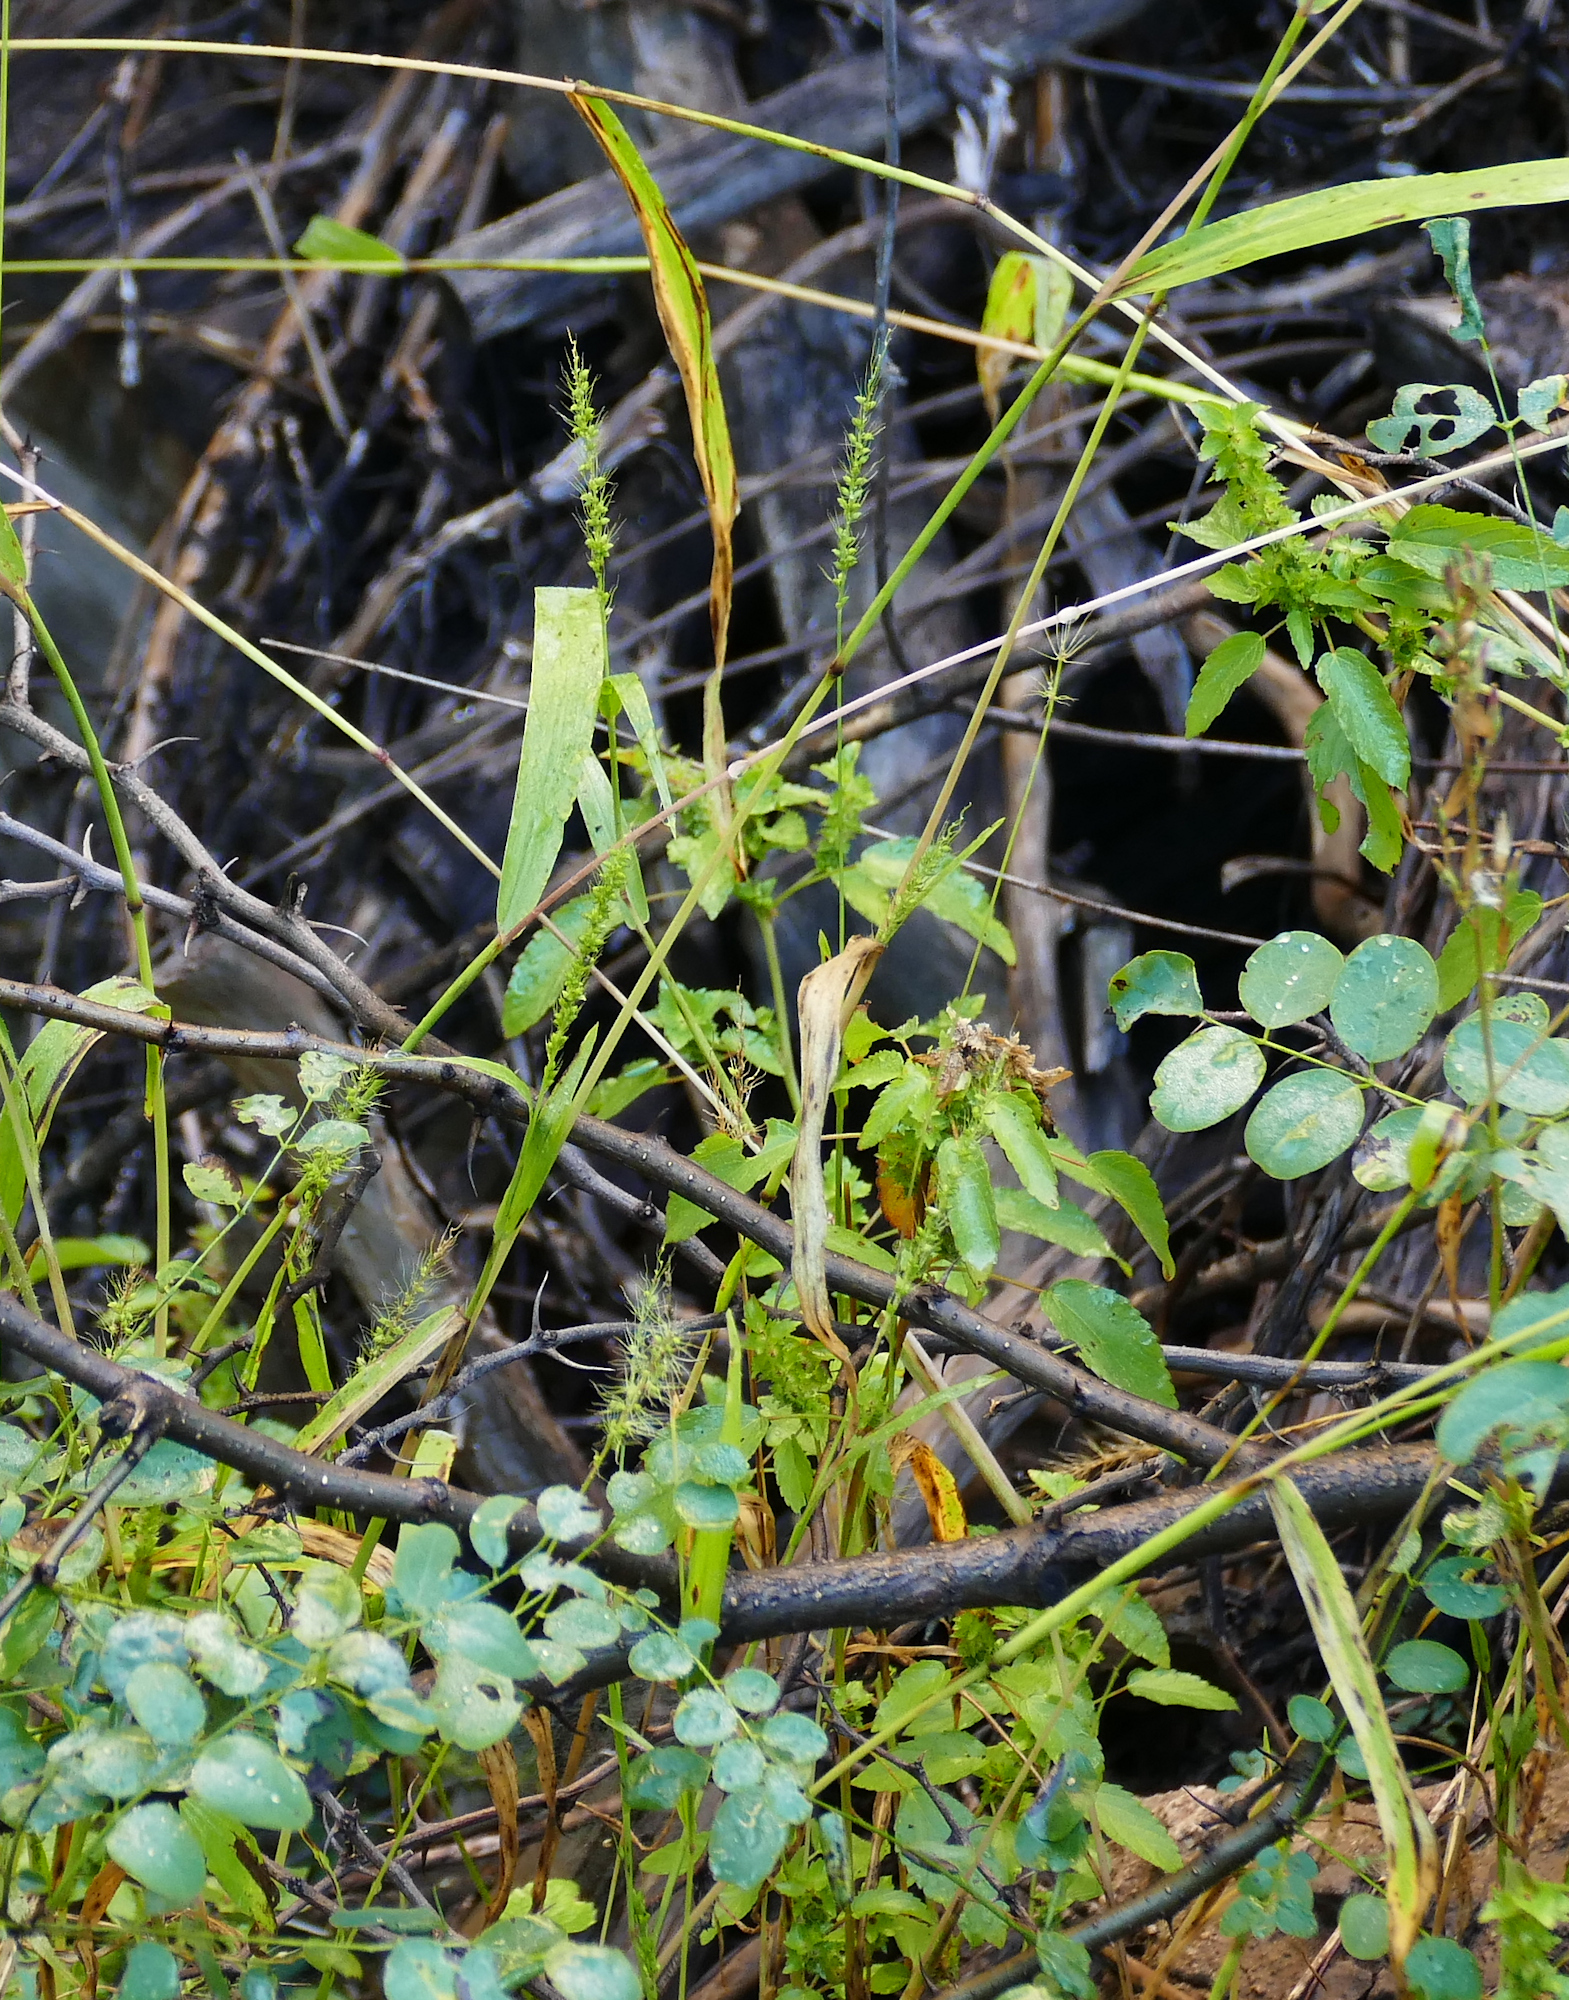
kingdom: Plantae
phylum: Tracheophyta
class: Liliopsida
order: Poales
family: Poaceae
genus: Setaria
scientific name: Setaria grisebachii
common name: Grisebach's bristle grass
